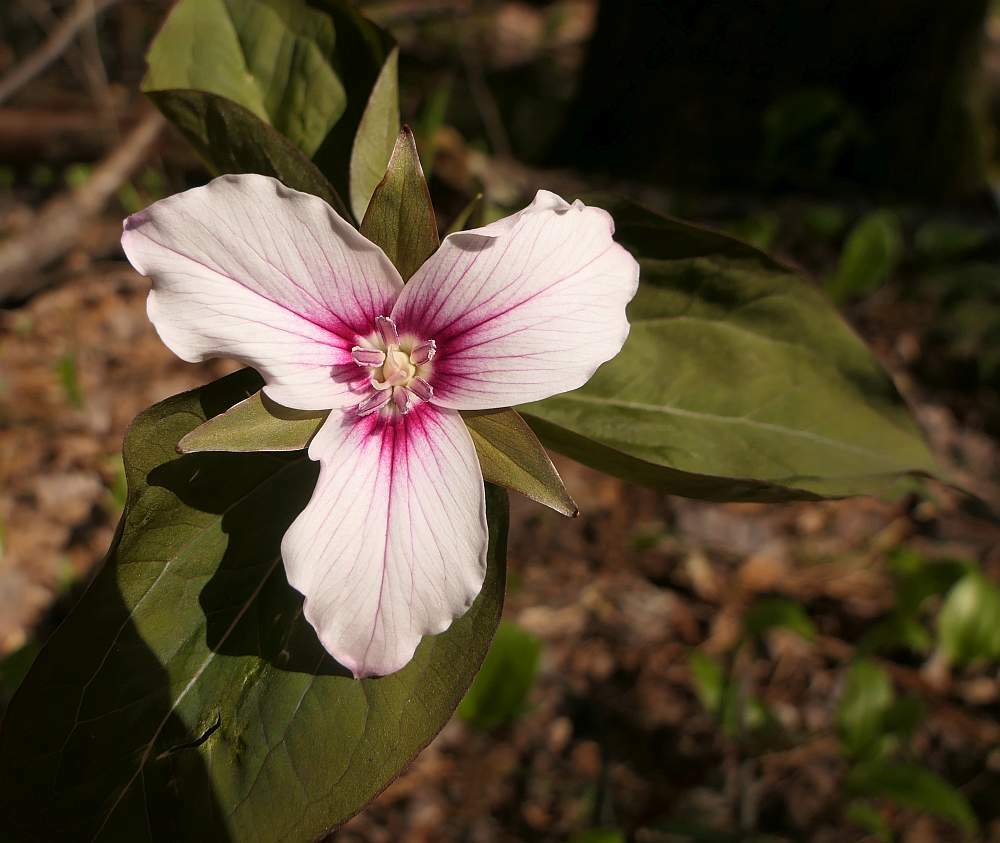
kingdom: Plantae
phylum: Tracheophyta
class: Liliopsida
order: Liliales
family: Melanthiaceae
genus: Trillium
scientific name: Trillium undulatum
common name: Paint trillium
